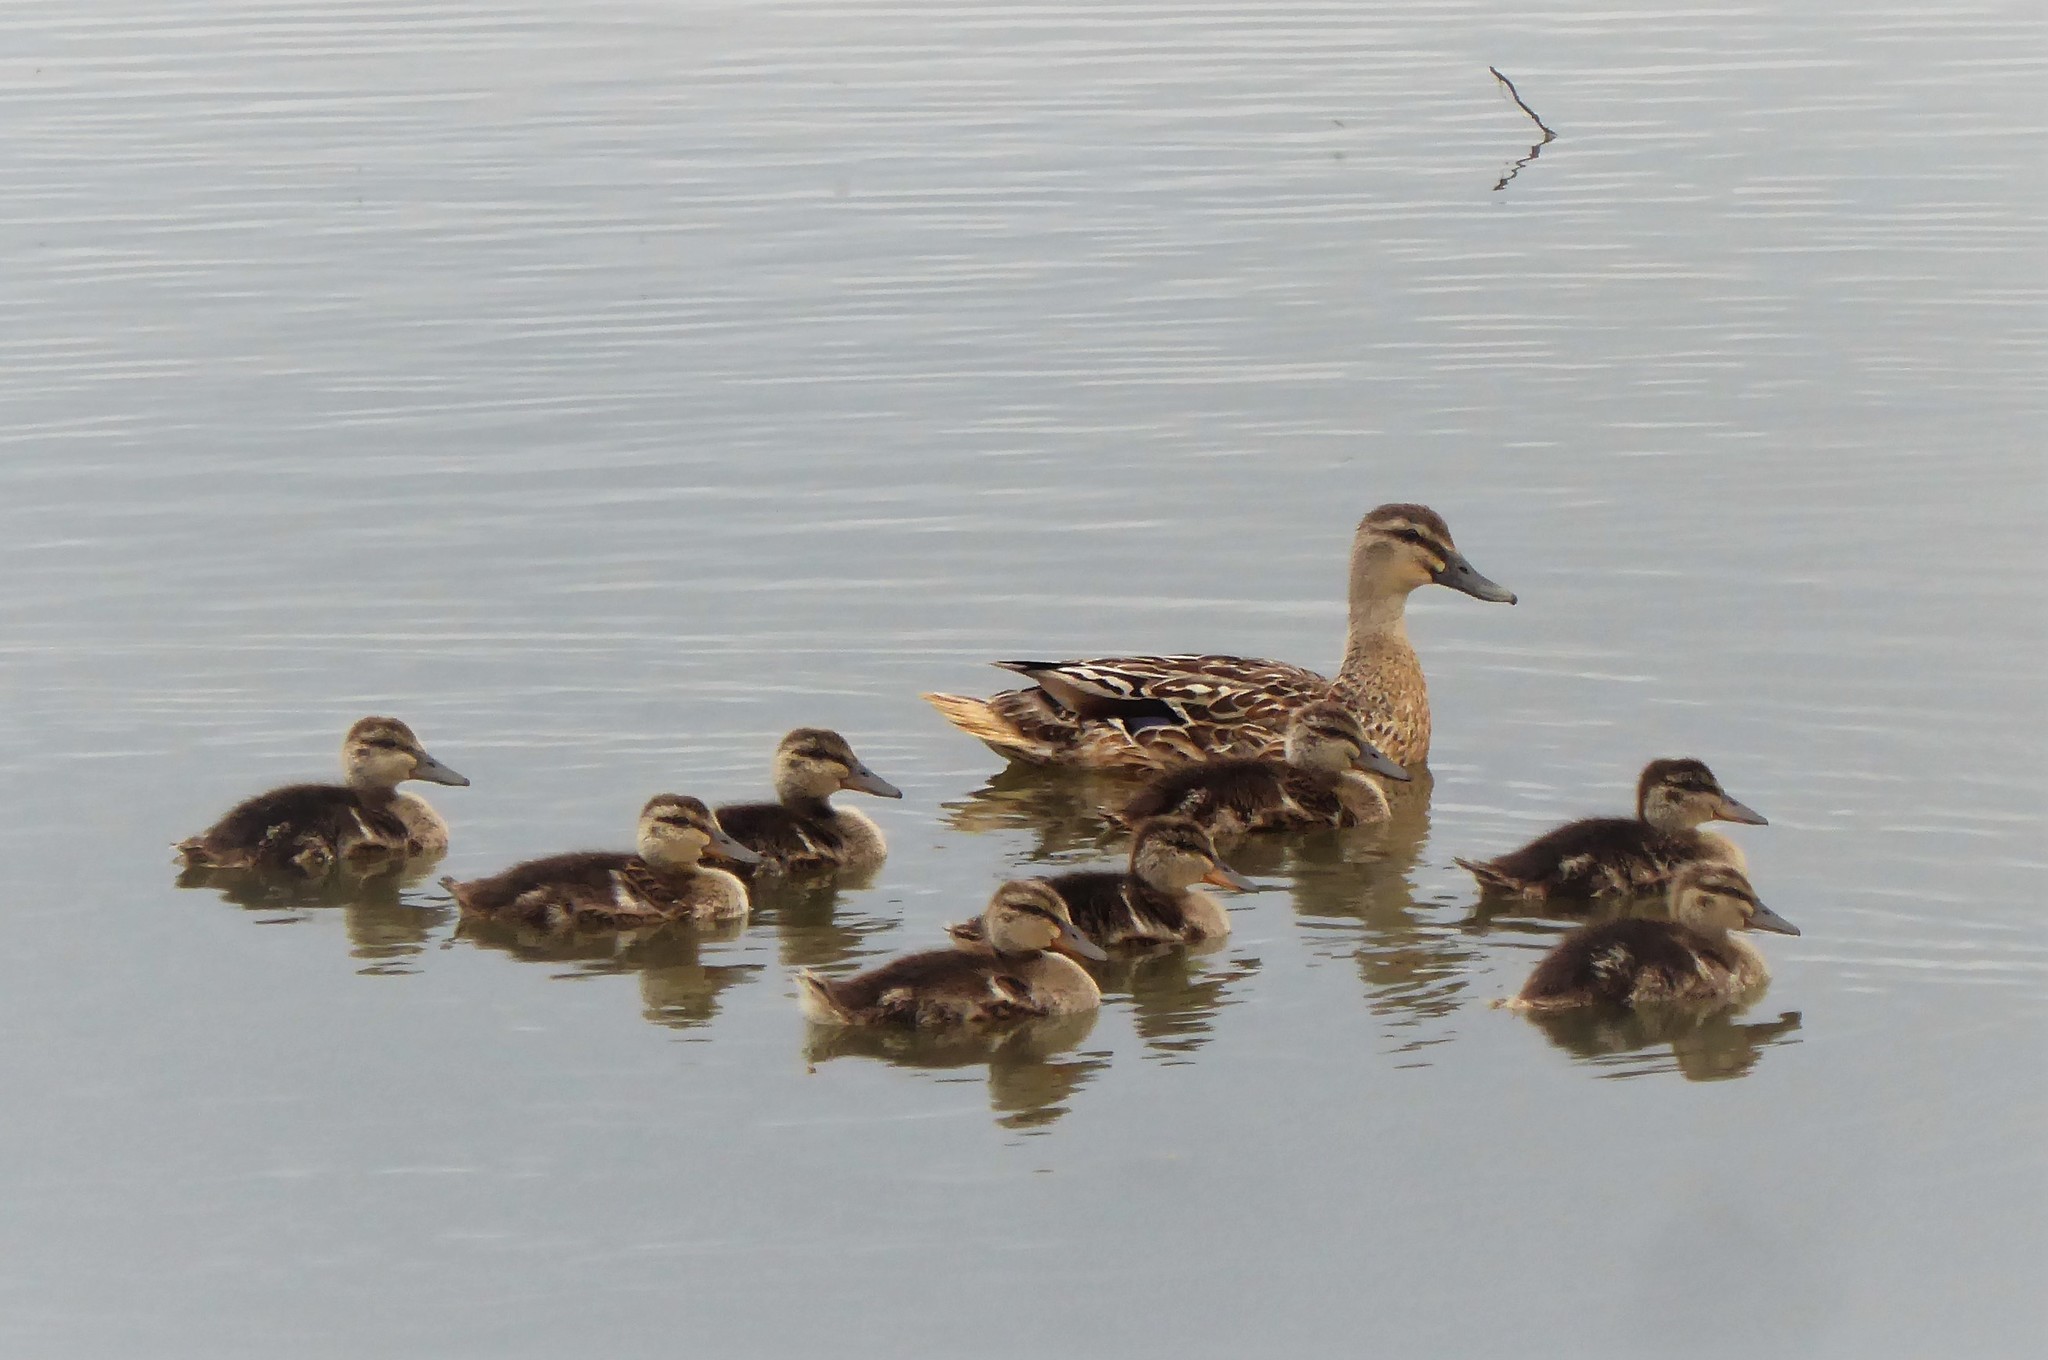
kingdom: Animalia
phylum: Chordata
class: Aves
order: Anseriformes
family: Anatidae
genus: Anas
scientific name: Anas platyrhynchos
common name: Mallard
